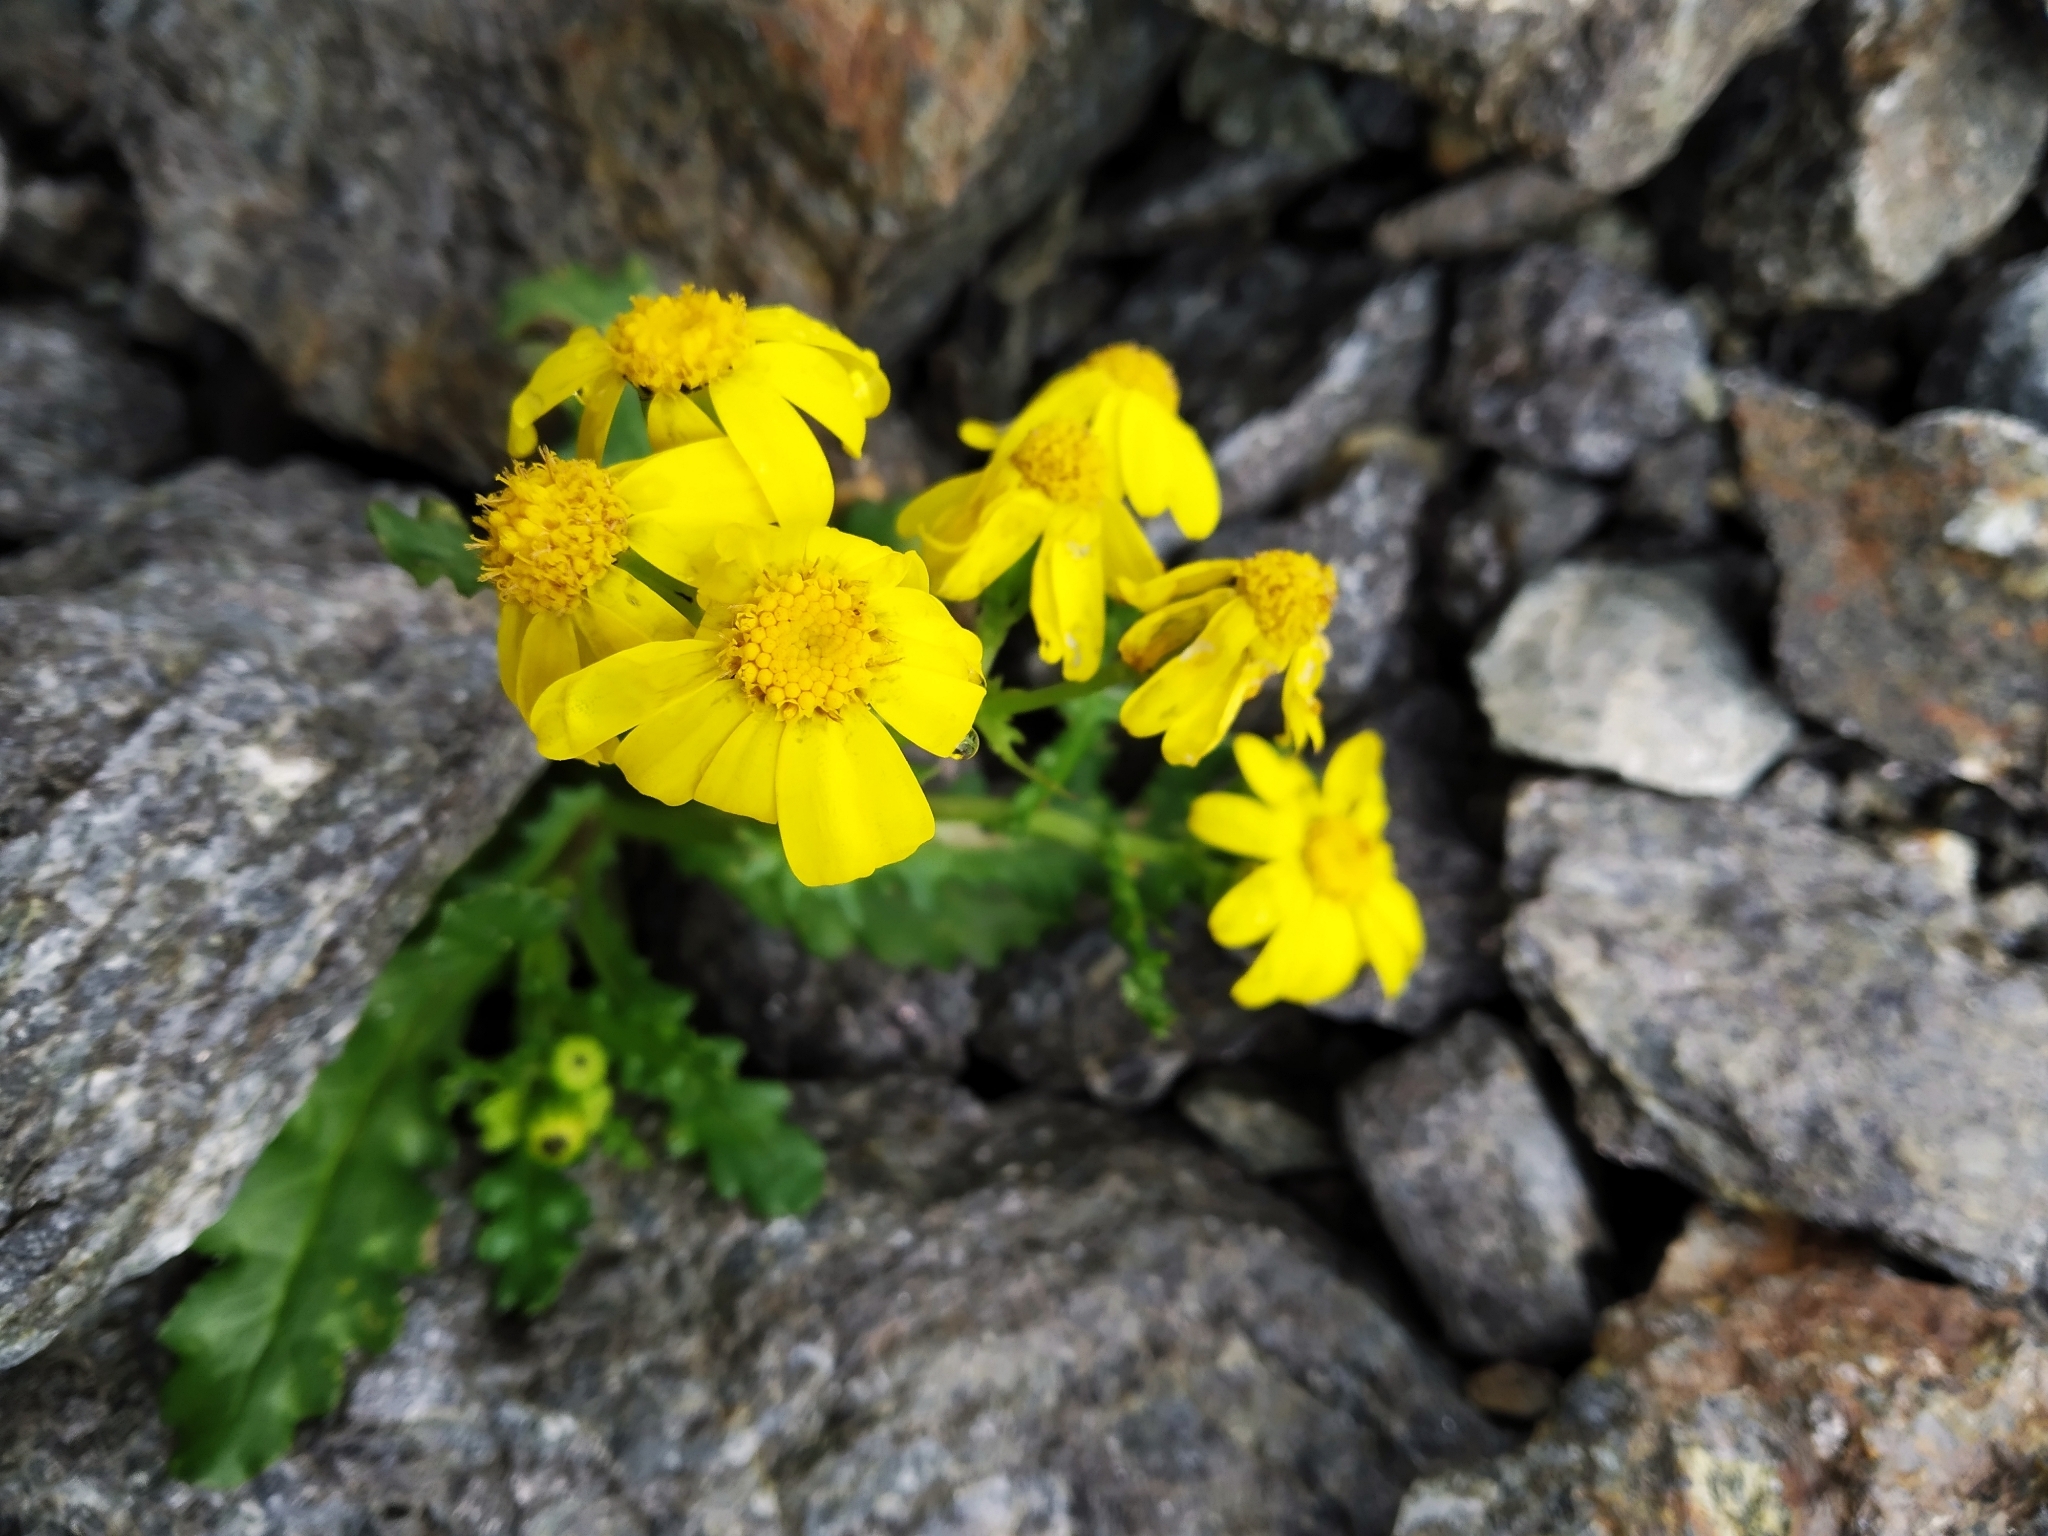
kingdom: Plantae
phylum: Tracheophyta
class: Magnoliopsida
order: Asterales
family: Asteraceae
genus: Senecio
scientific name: Senecio leucanthemifolius
